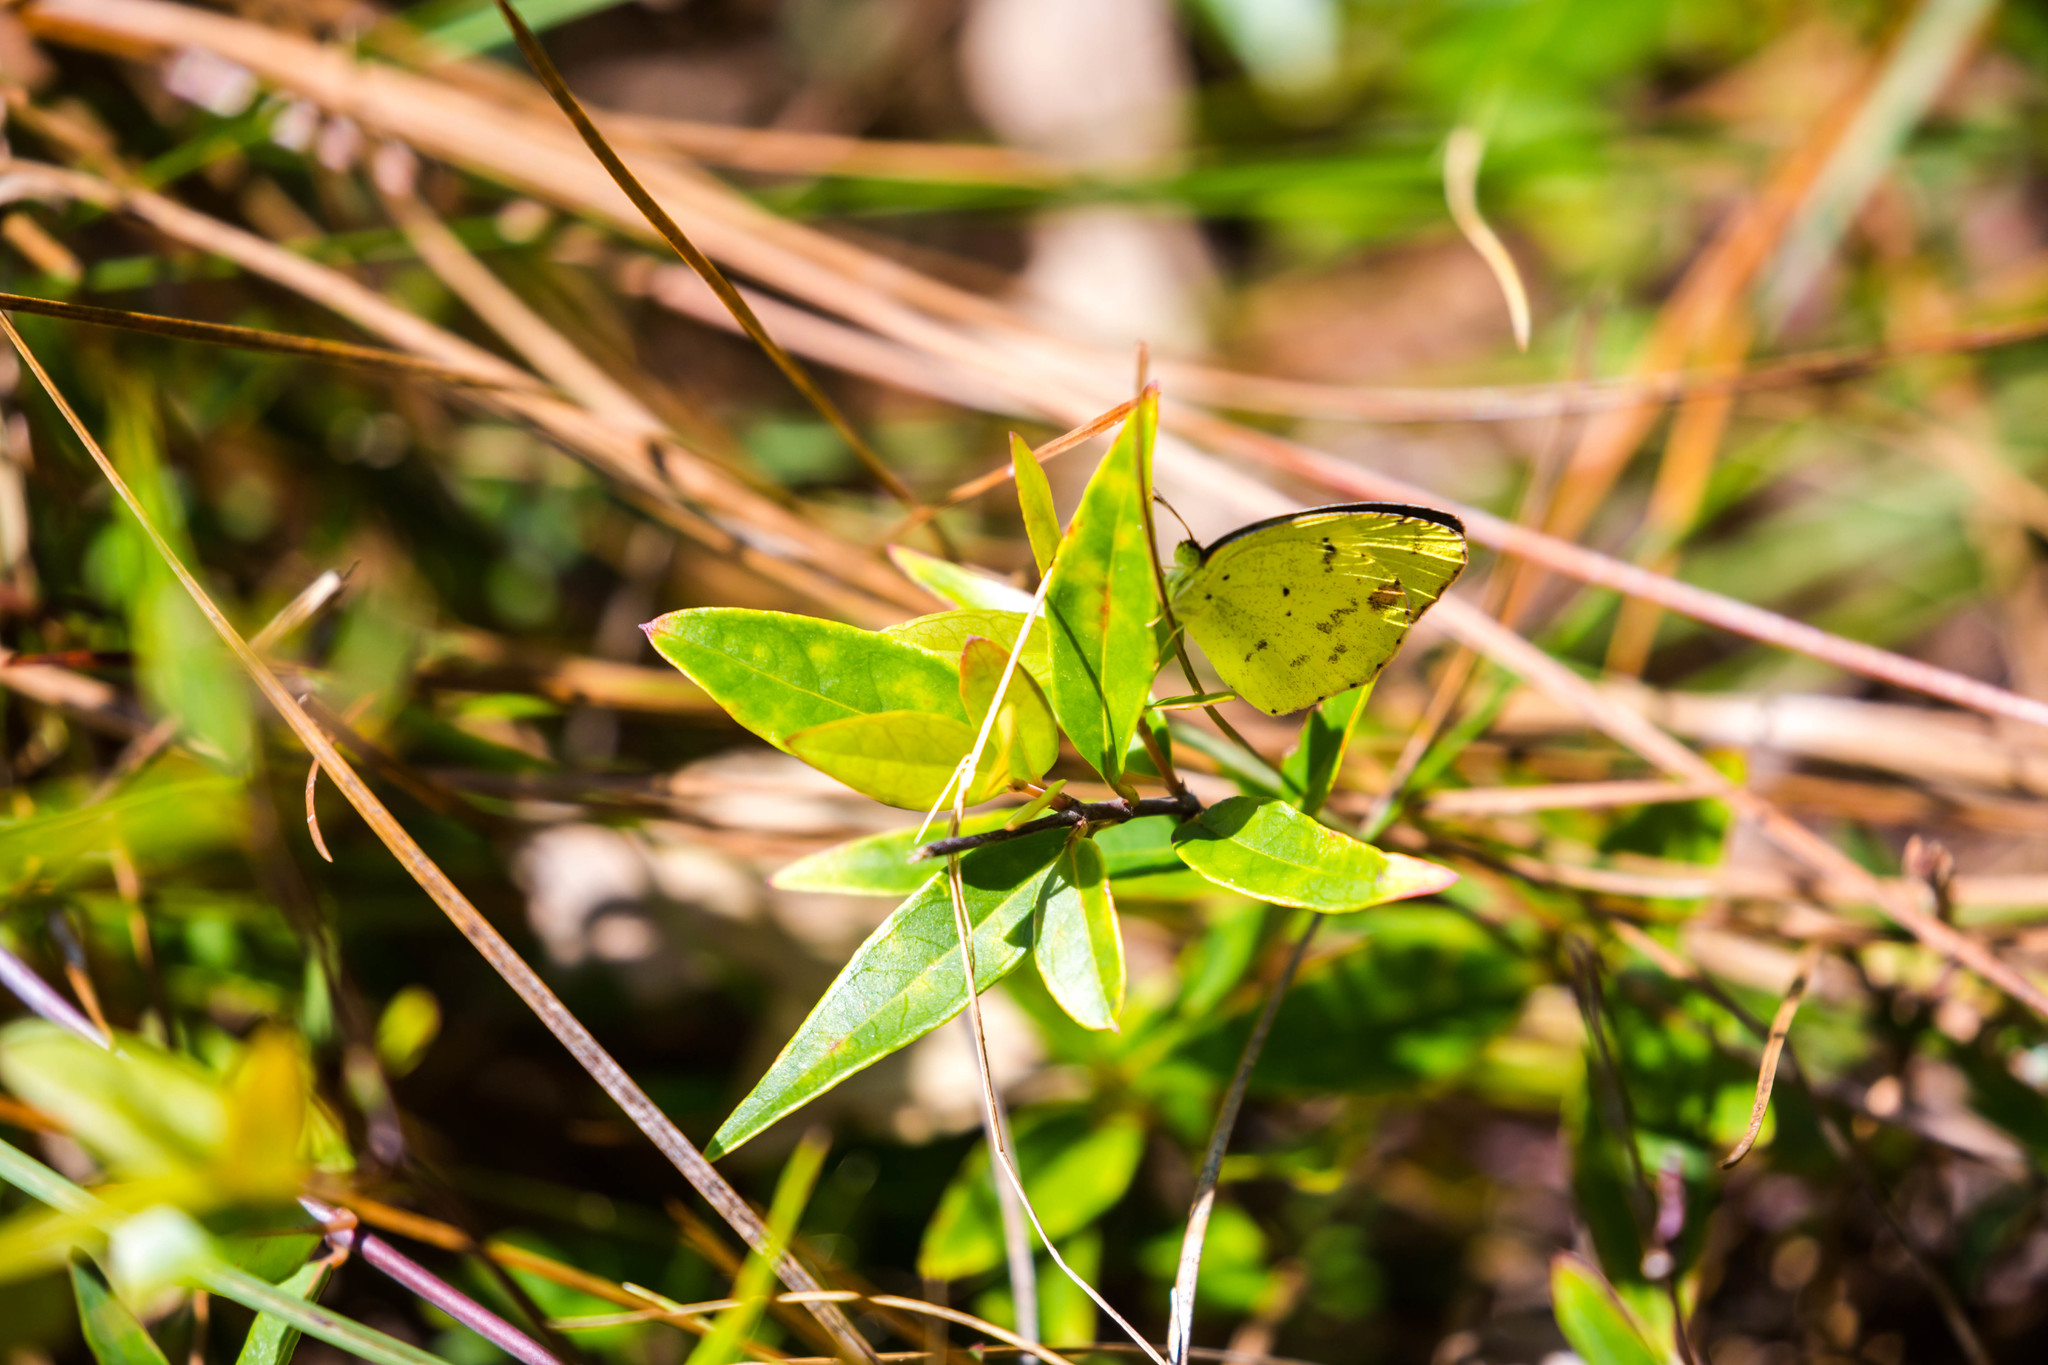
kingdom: Animalia
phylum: Arthropoda
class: Insecta
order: Lepidoptera
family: Pieridae
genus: Pyrisitia
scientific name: Pyrisitia lisa
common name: Little yellow
